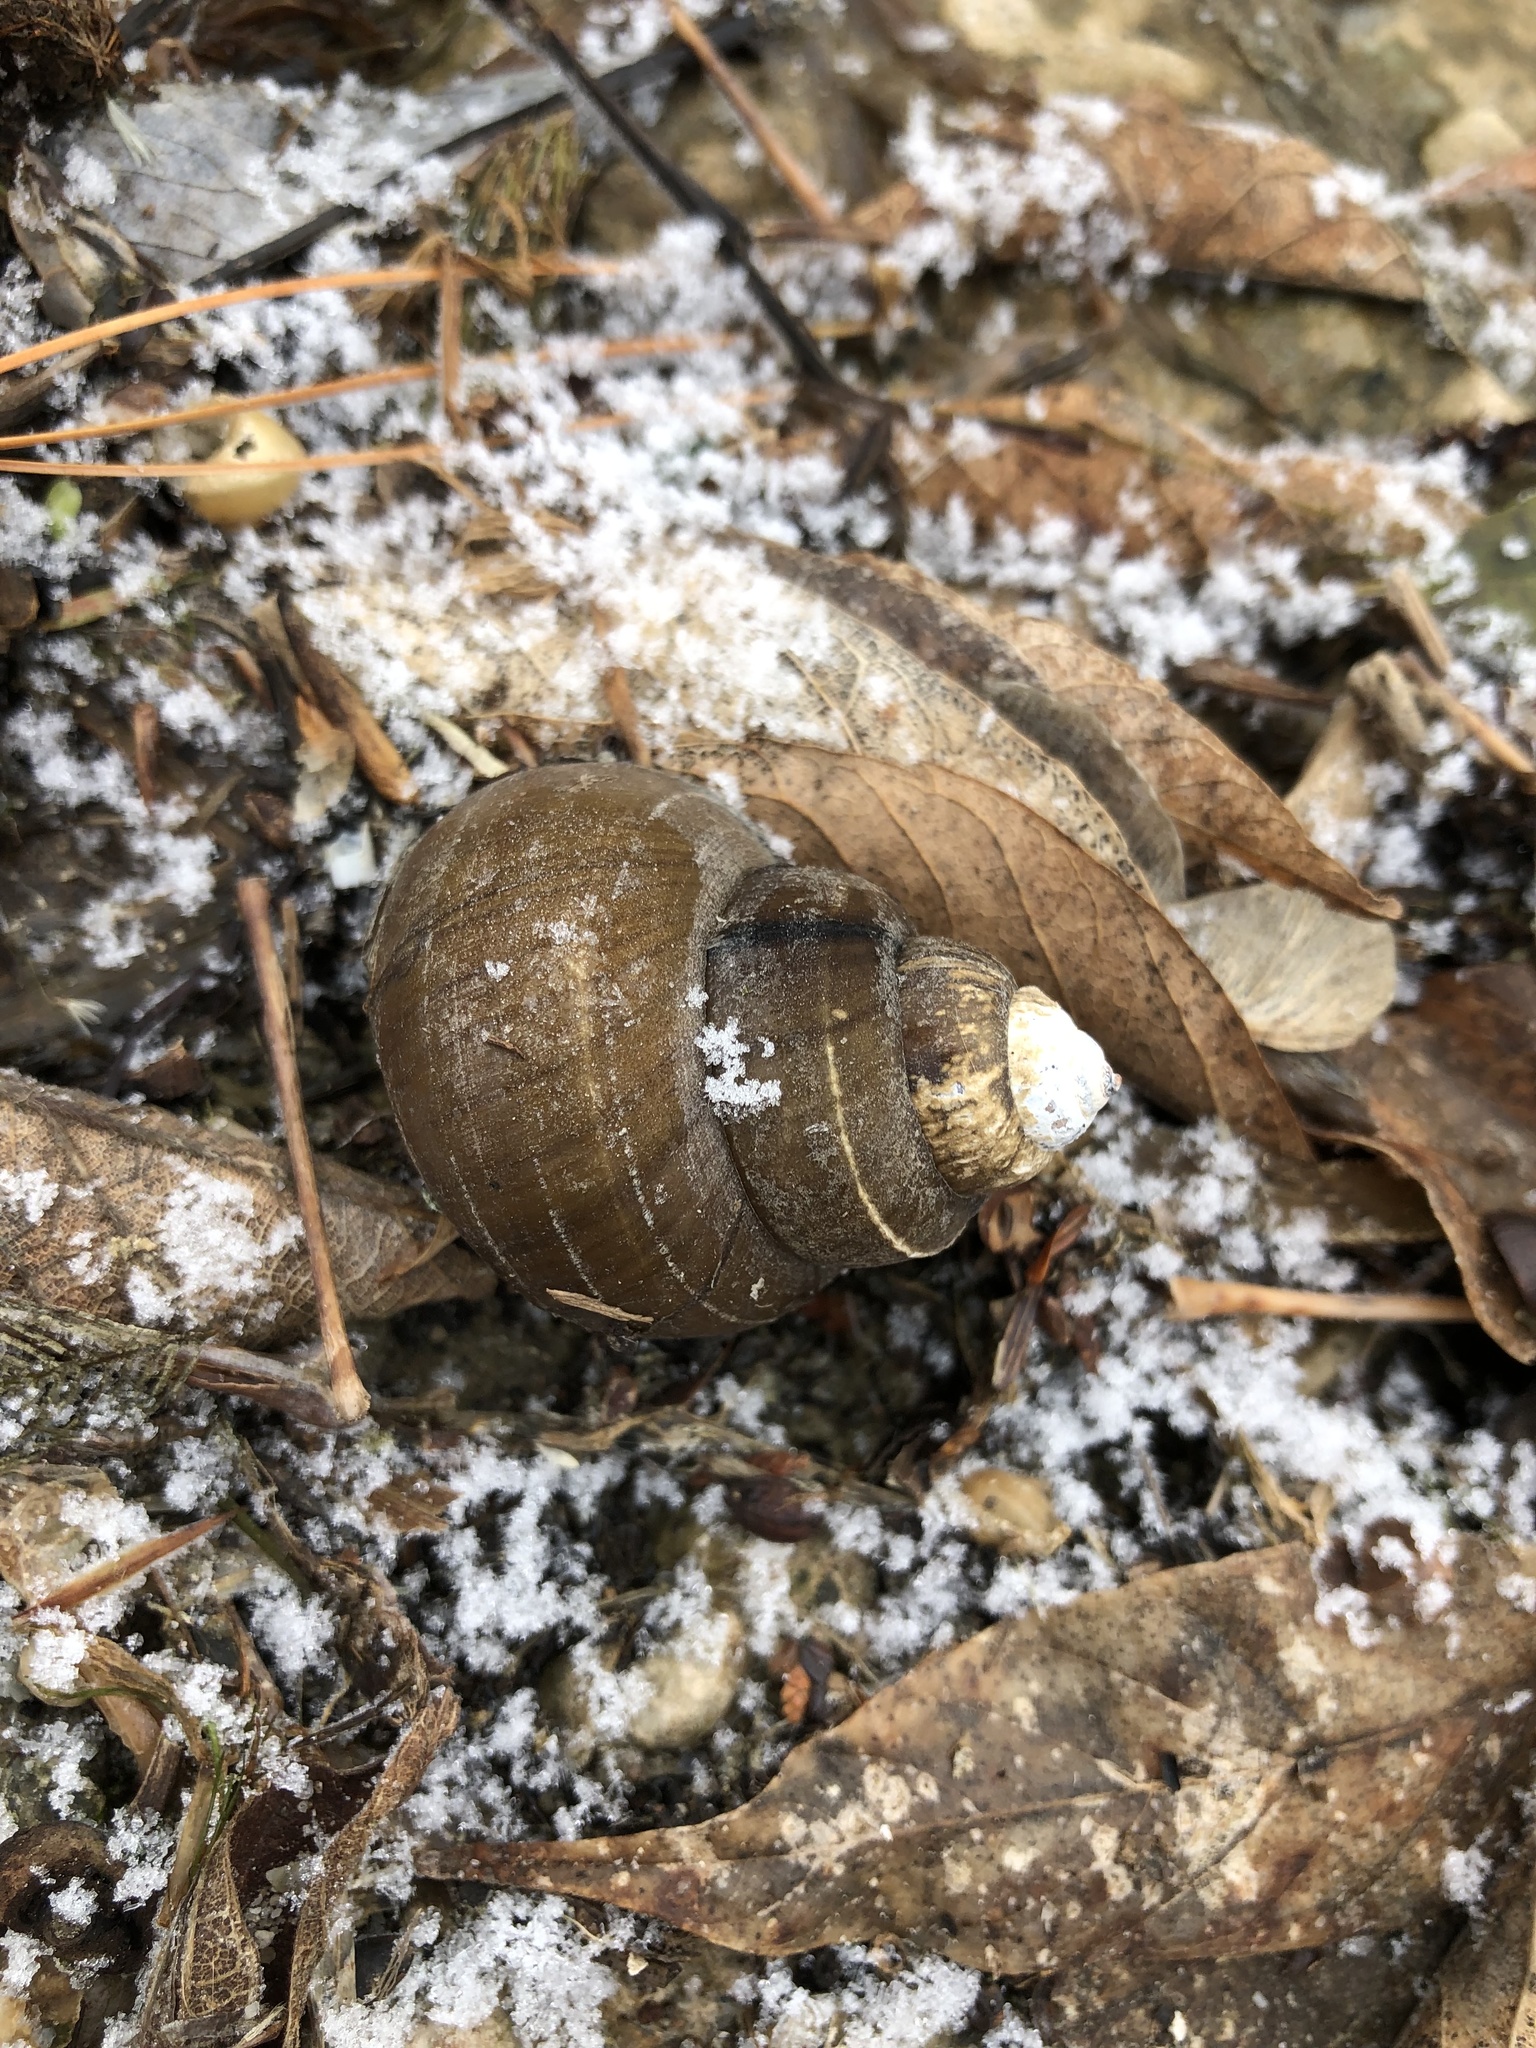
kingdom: Animalia
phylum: Mollusca
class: Gastropoda
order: Architaenioglossa
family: Viviparidae
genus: Cipangopaludina
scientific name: Cipangopaludina chinensis
